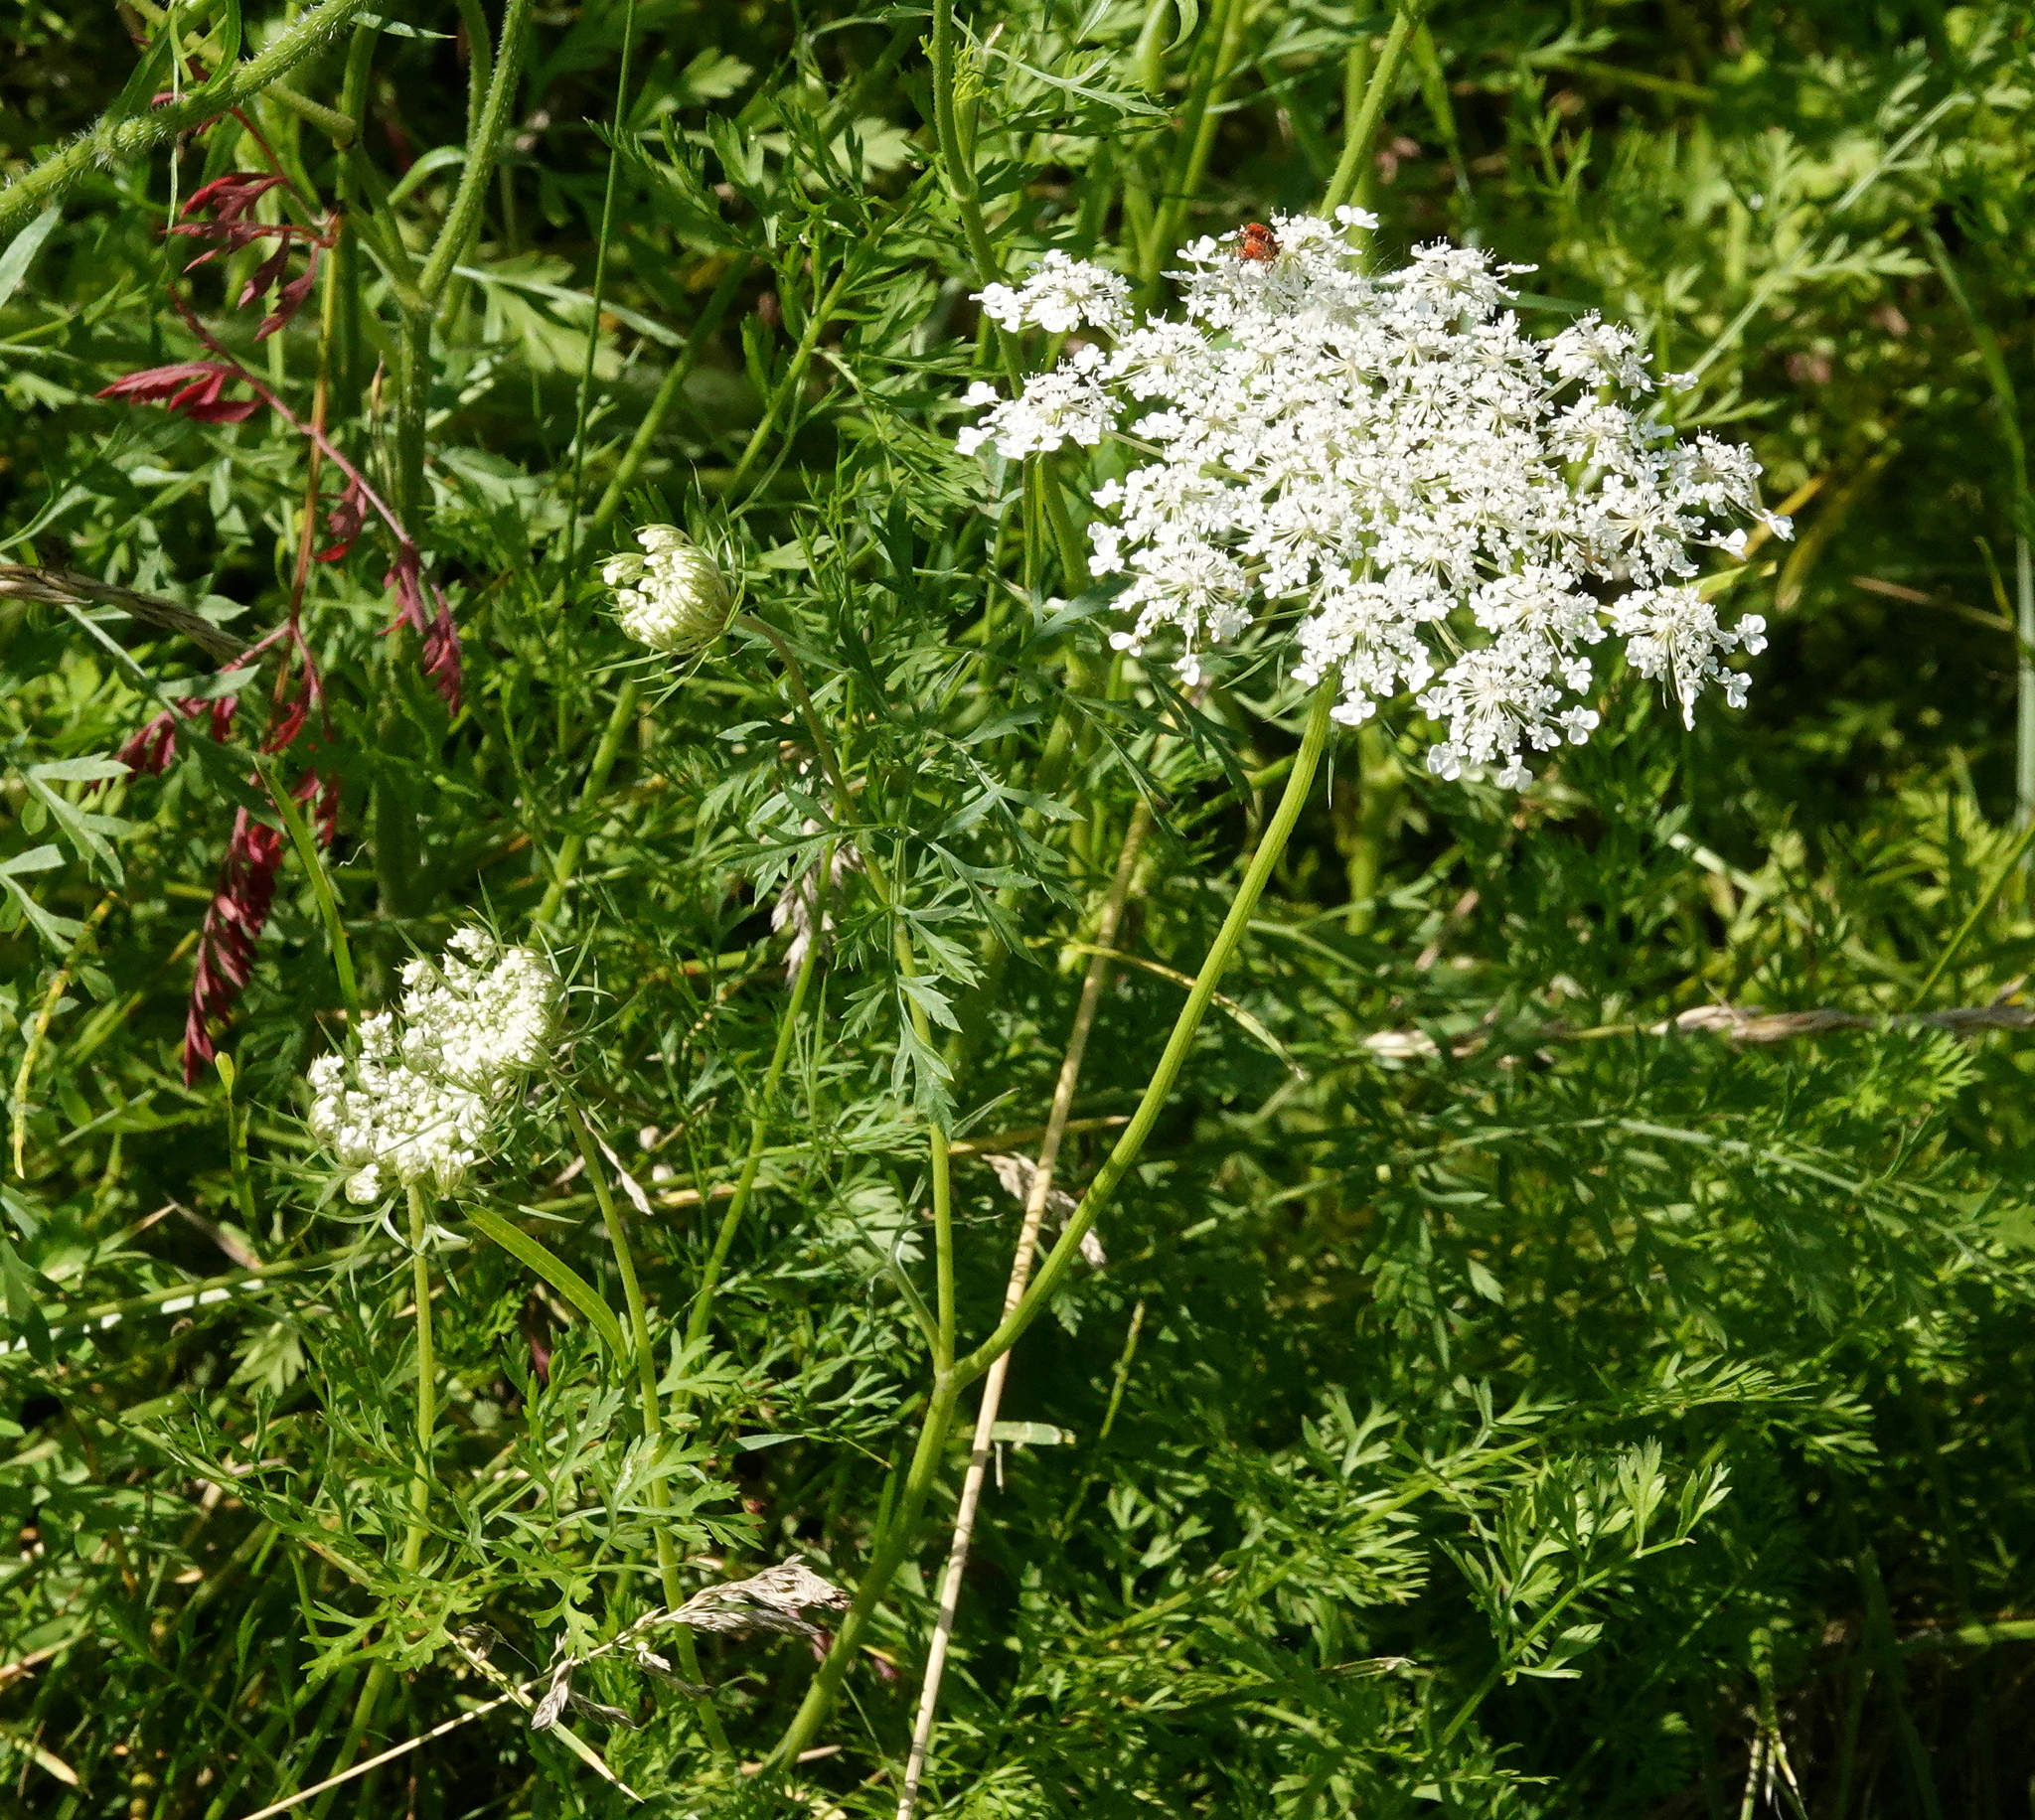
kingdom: Plantae
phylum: Tracheophyta
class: Magnoliopsida
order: Apiales
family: Apiaceae
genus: Daucus
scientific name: Daucus carota
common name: Wild carrot
